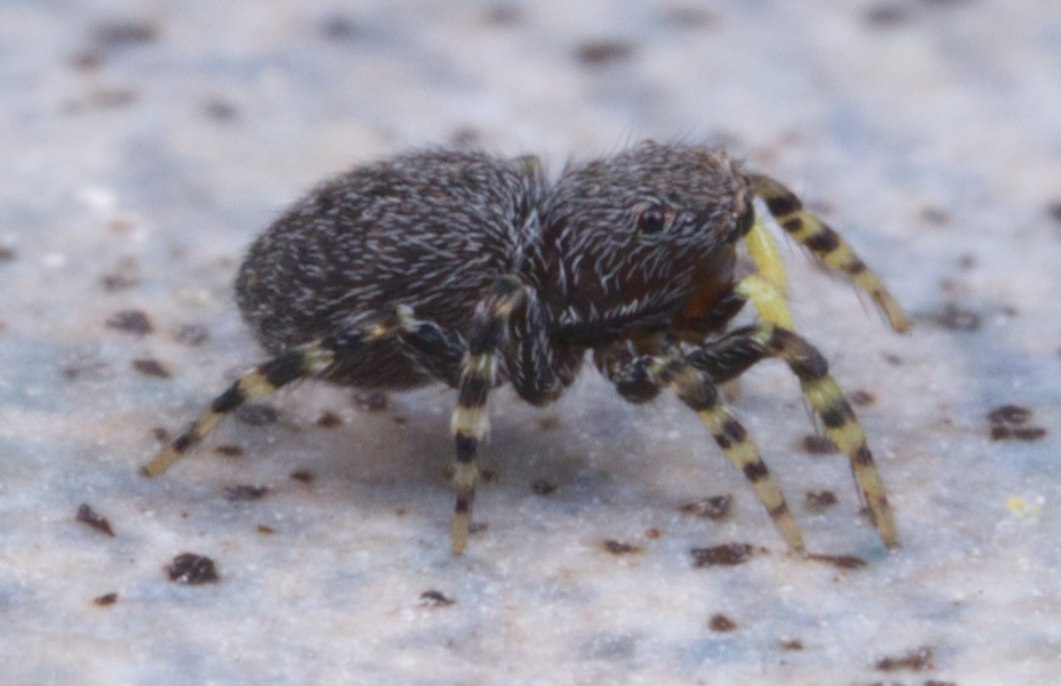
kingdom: Animalia
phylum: Arthropoda
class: Arachnida
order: Araneae
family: Salticidae
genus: Talavera
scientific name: Talavera minuta
